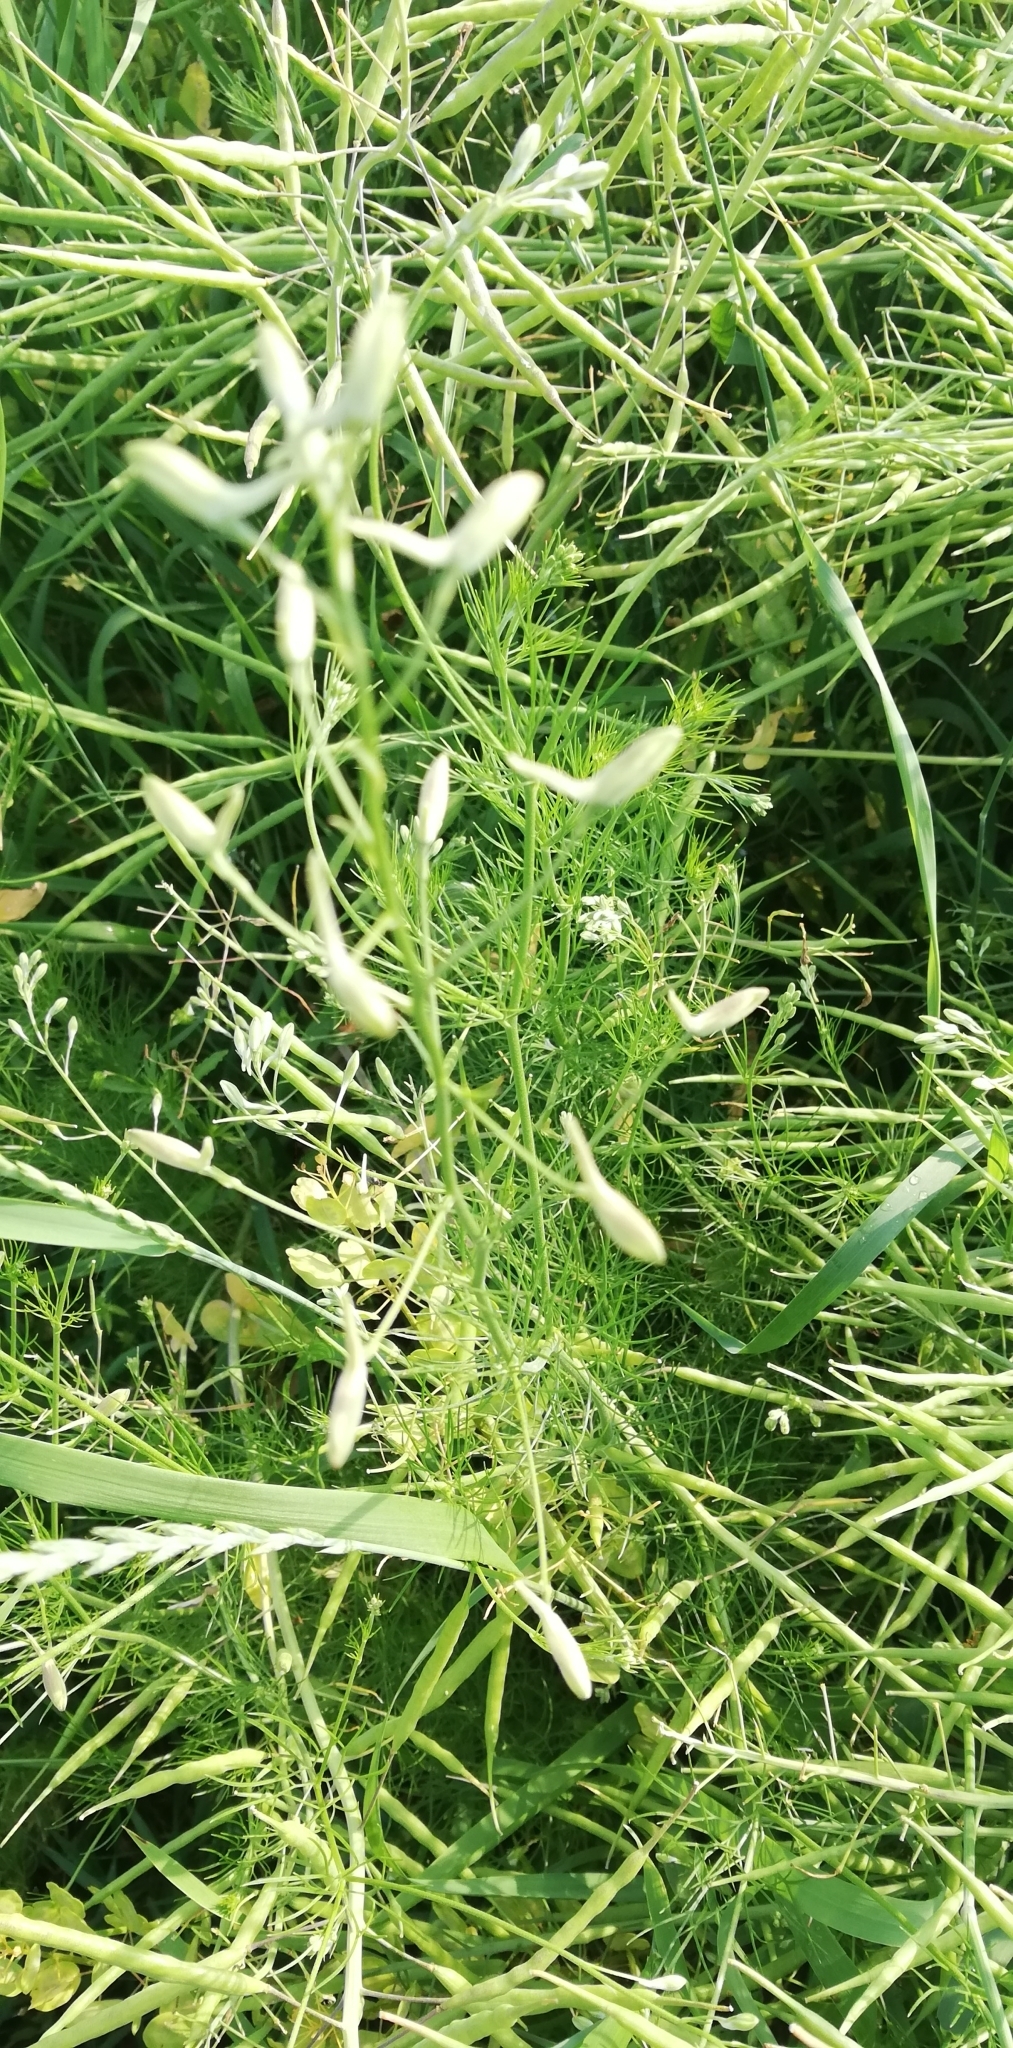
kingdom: Plantae
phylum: Tracheophyta
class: Magnoliopsida
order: Ranunculales
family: Ranunculaceae
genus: Delphinium
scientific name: Delphinium consolida
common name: Branching larkspur
